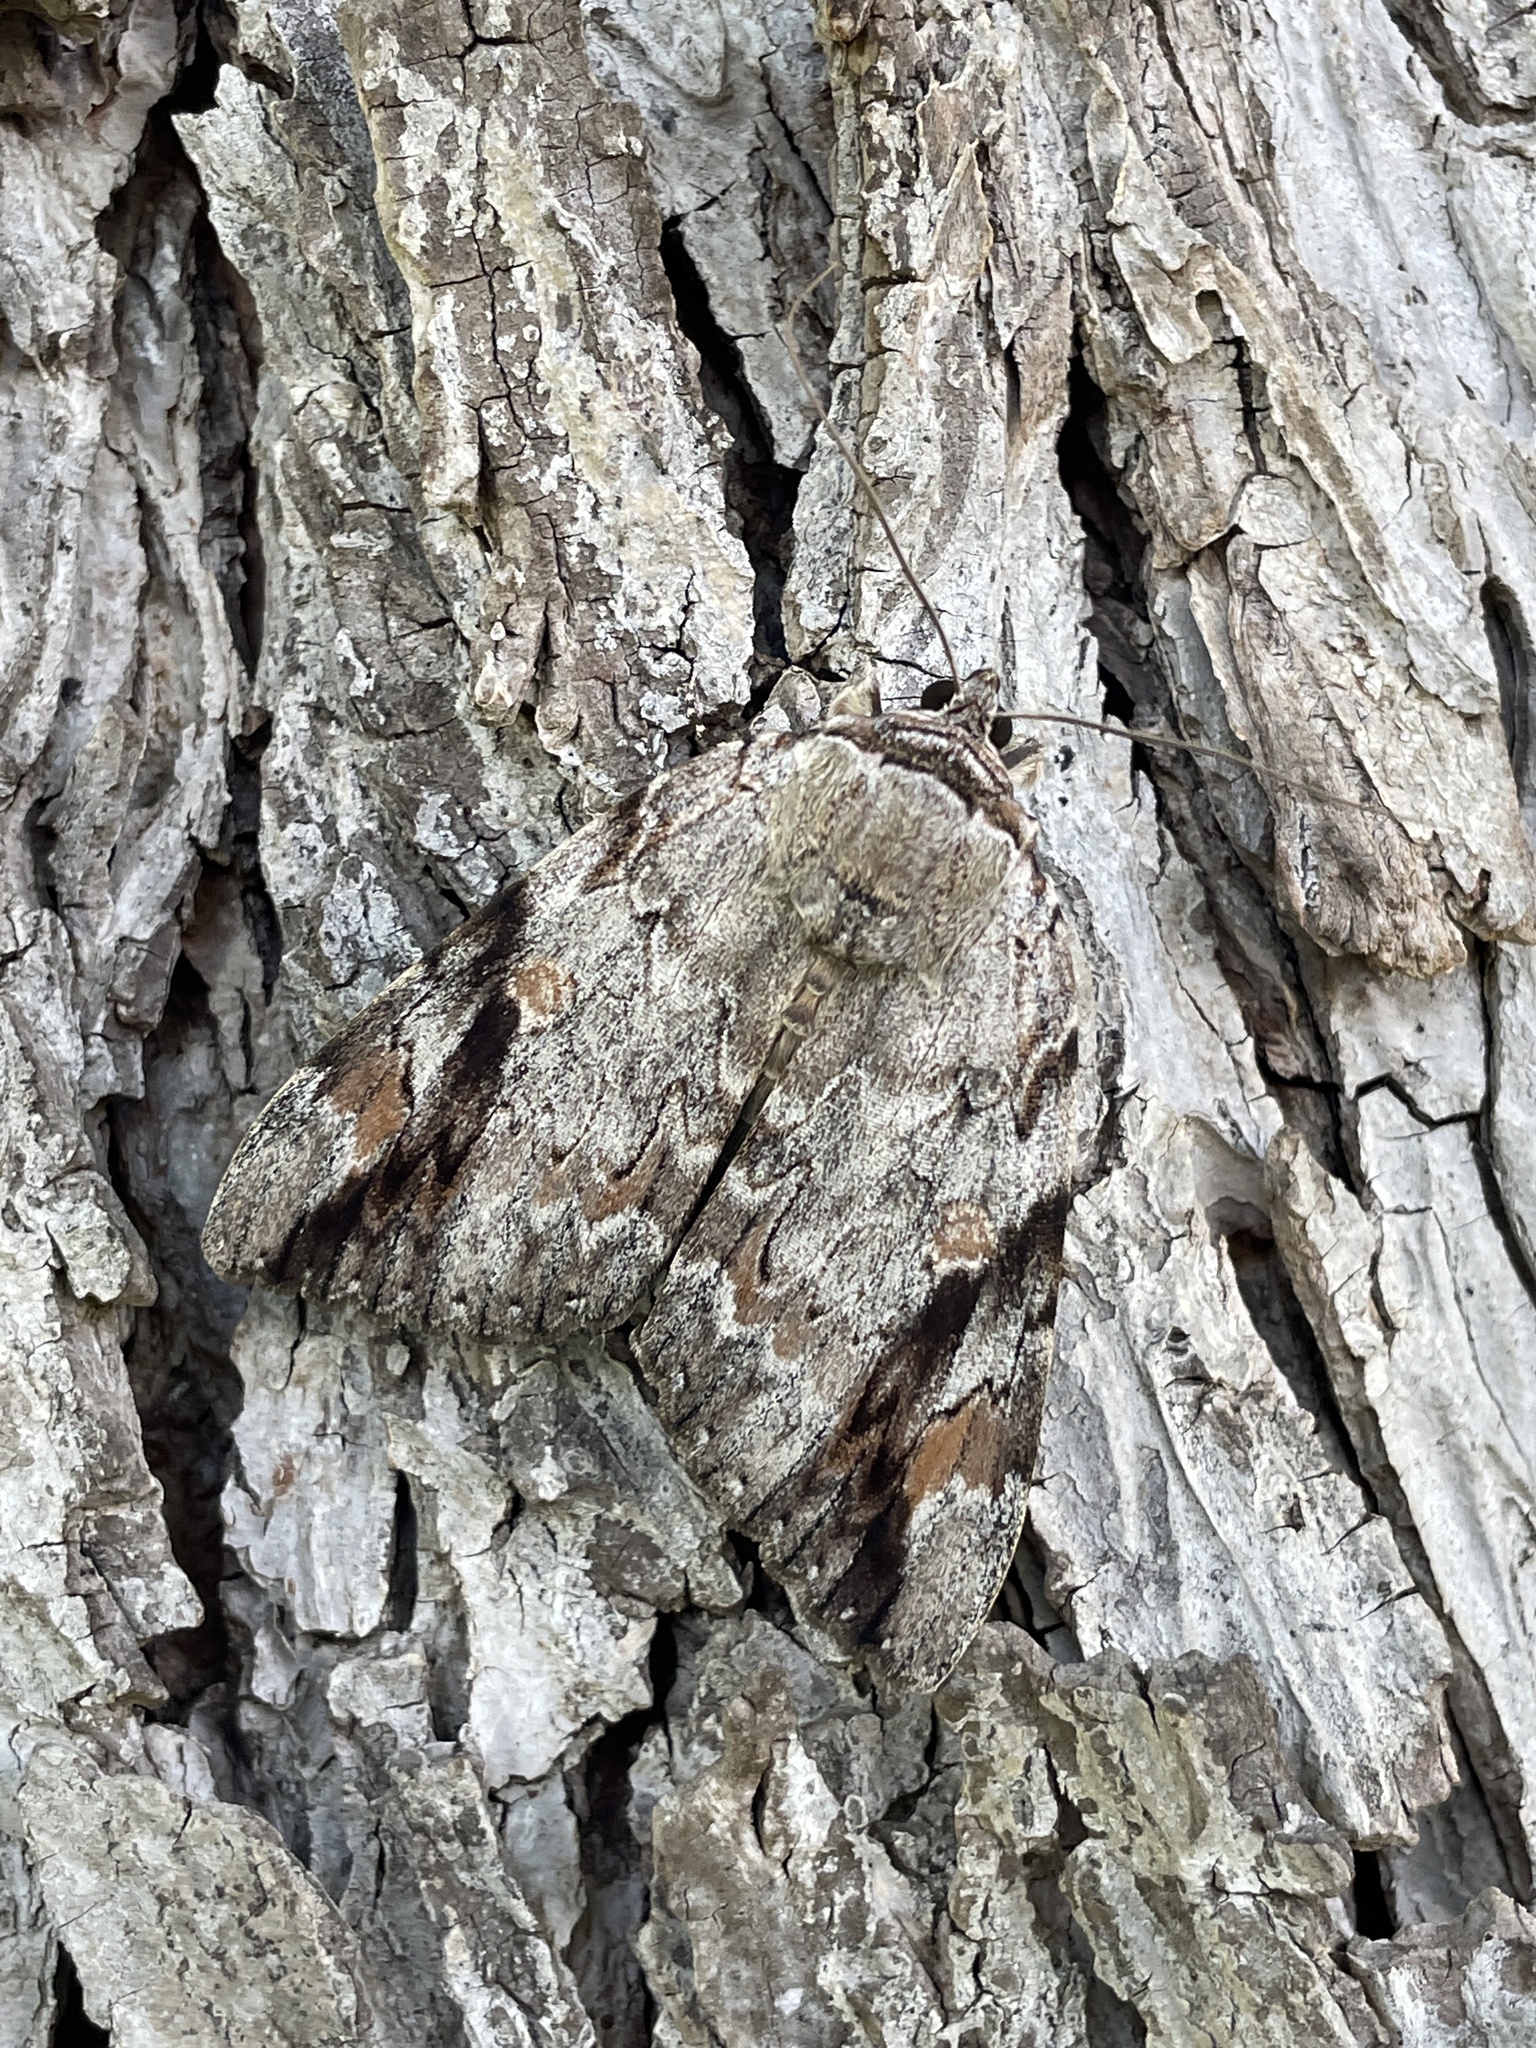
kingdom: Animalia
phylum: Arthropoda
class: Insecta
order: Lepidoptera
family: Erebidae
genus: Catocala
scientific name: Catocala maestosa
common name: Sad underwing
